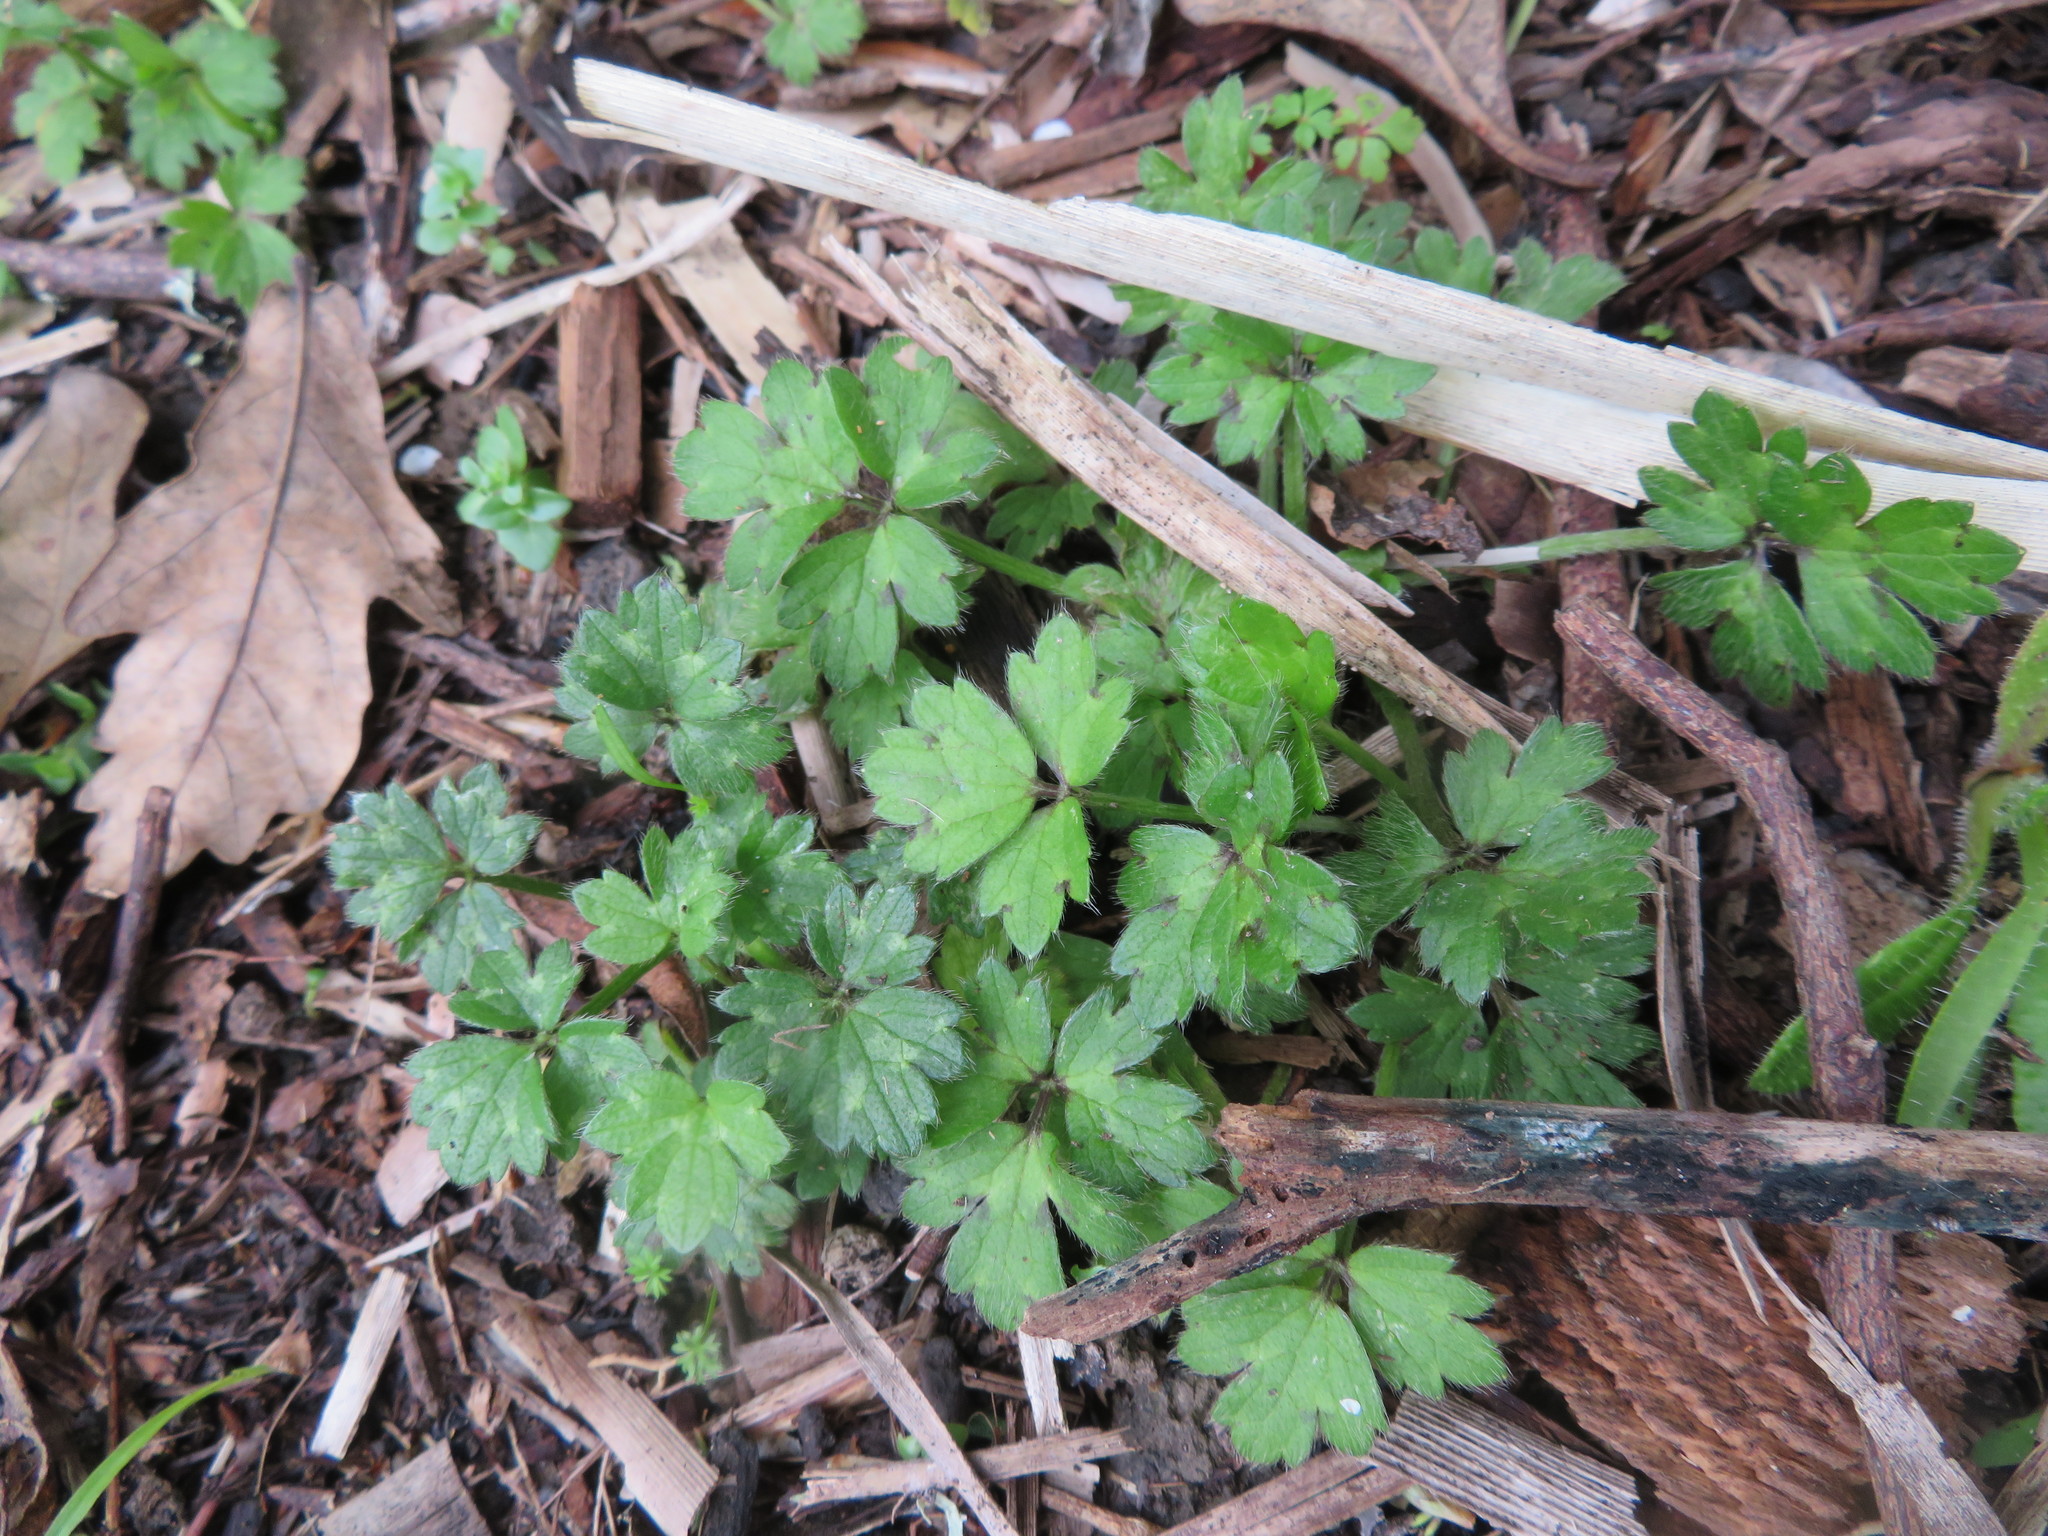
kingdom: Plantae
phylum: Tracheophyta
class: Magnoliopsida
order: Ranunculales
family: Ranunculaceae
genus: Ranunculus
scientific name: Ranunculus repens
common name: Creeping buttercup
